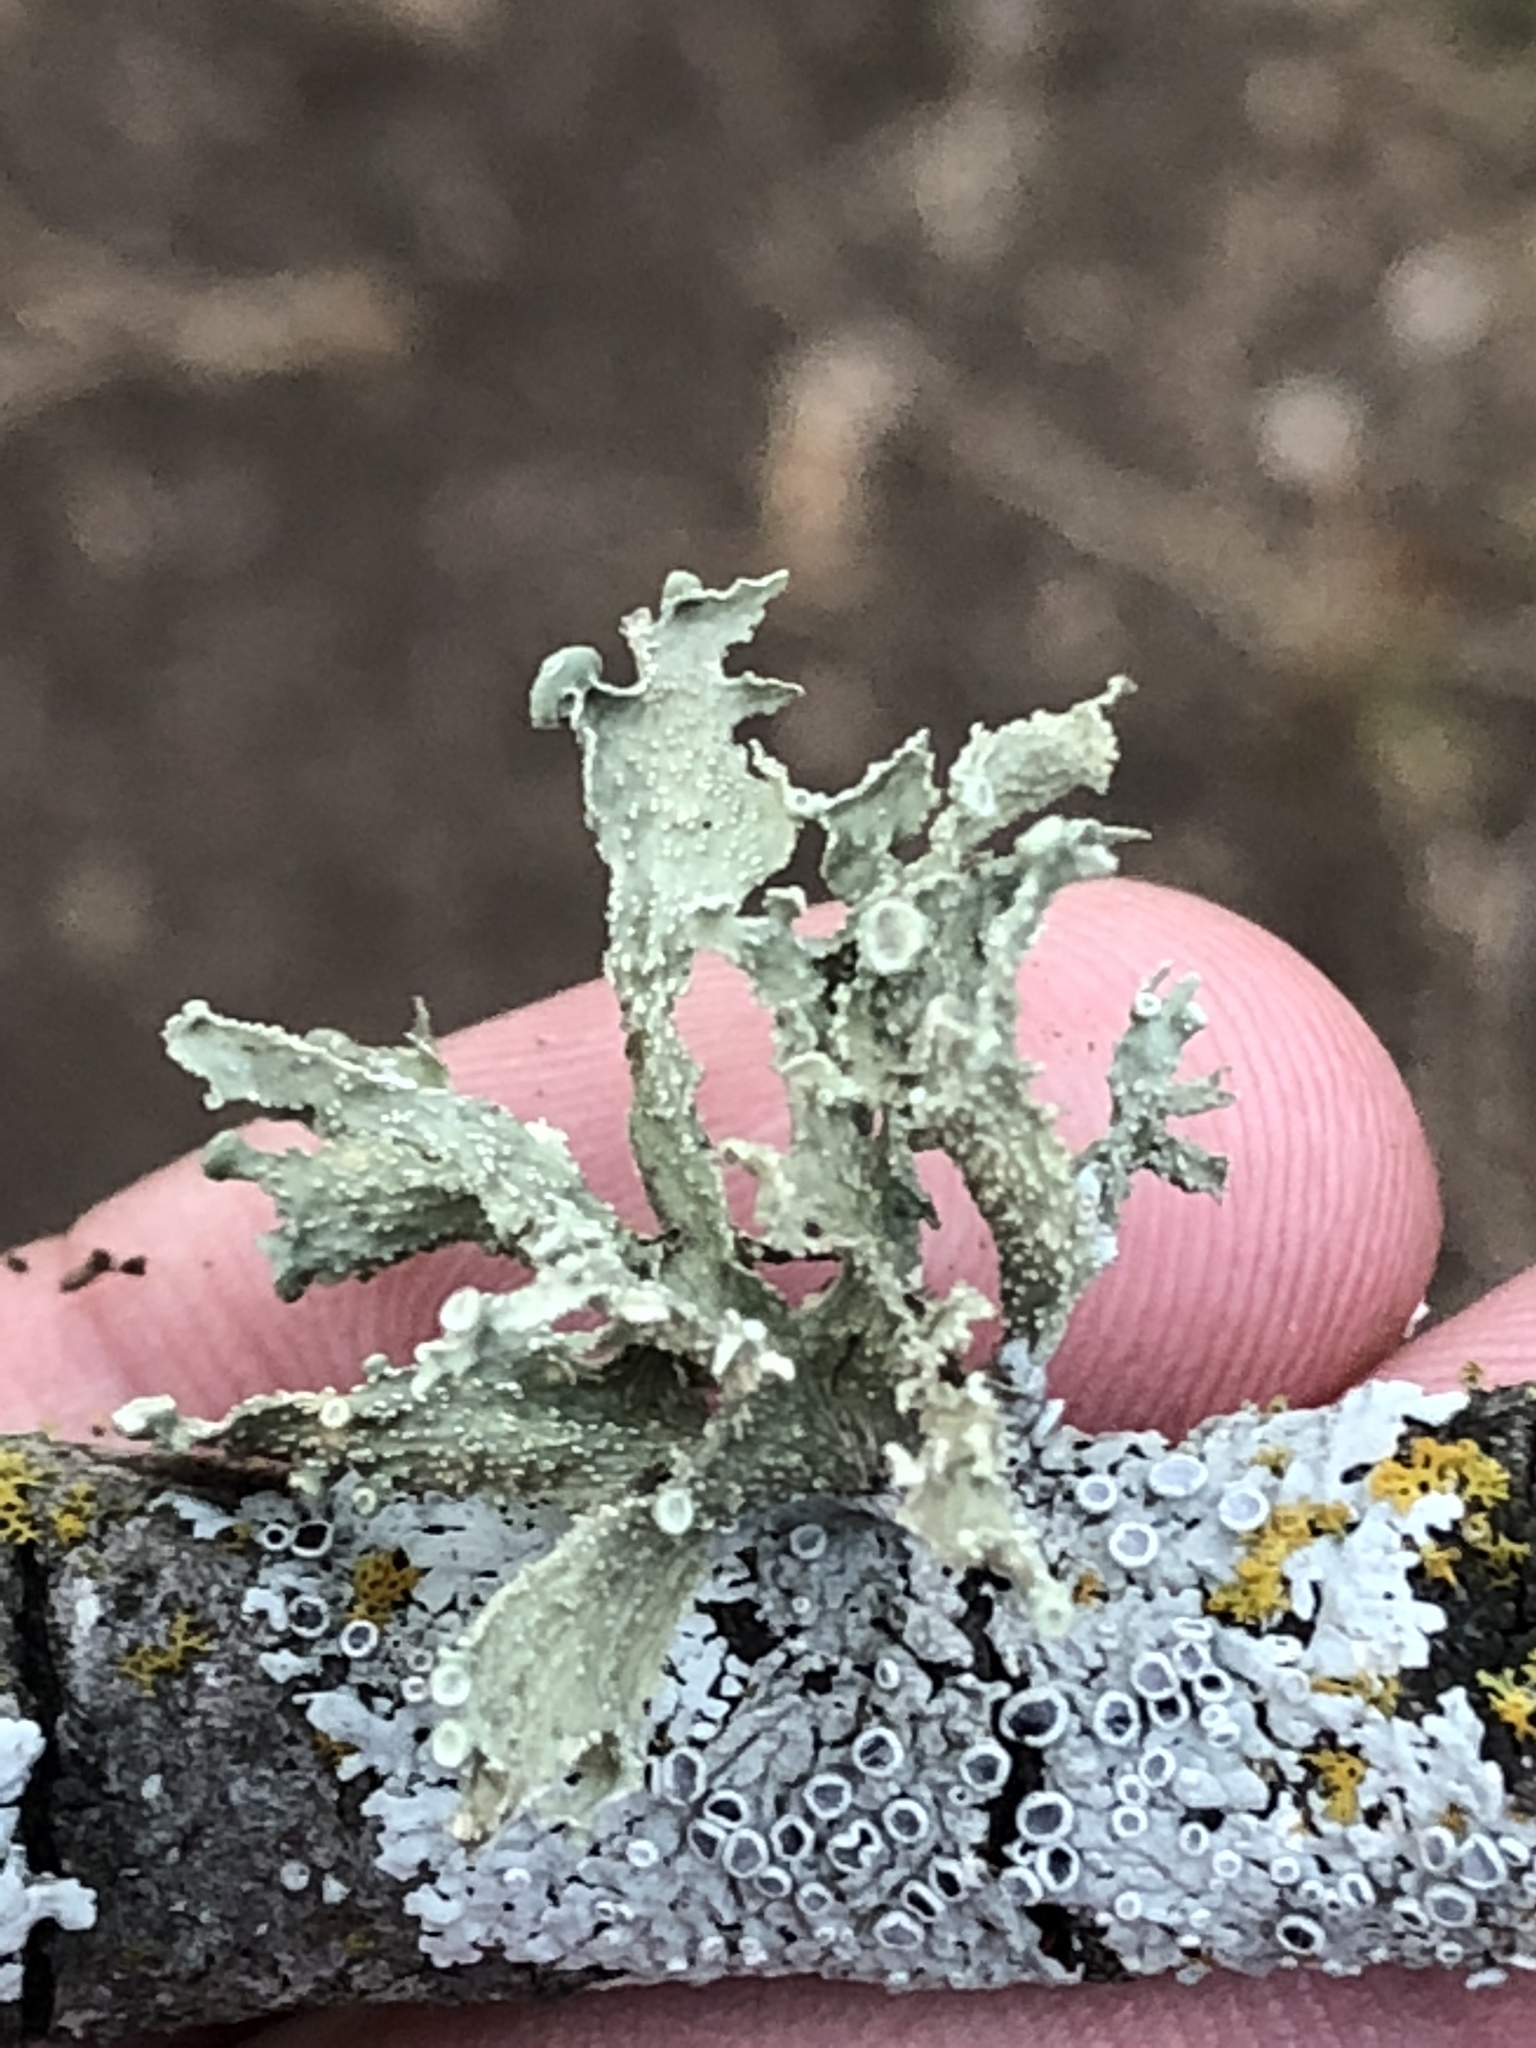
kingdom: Fungi
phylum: Ascomycota
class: Lecanoromycetes
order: Lecanorales
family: Ramalinaceae
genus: Ramalina
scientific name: Ramalina complanata
